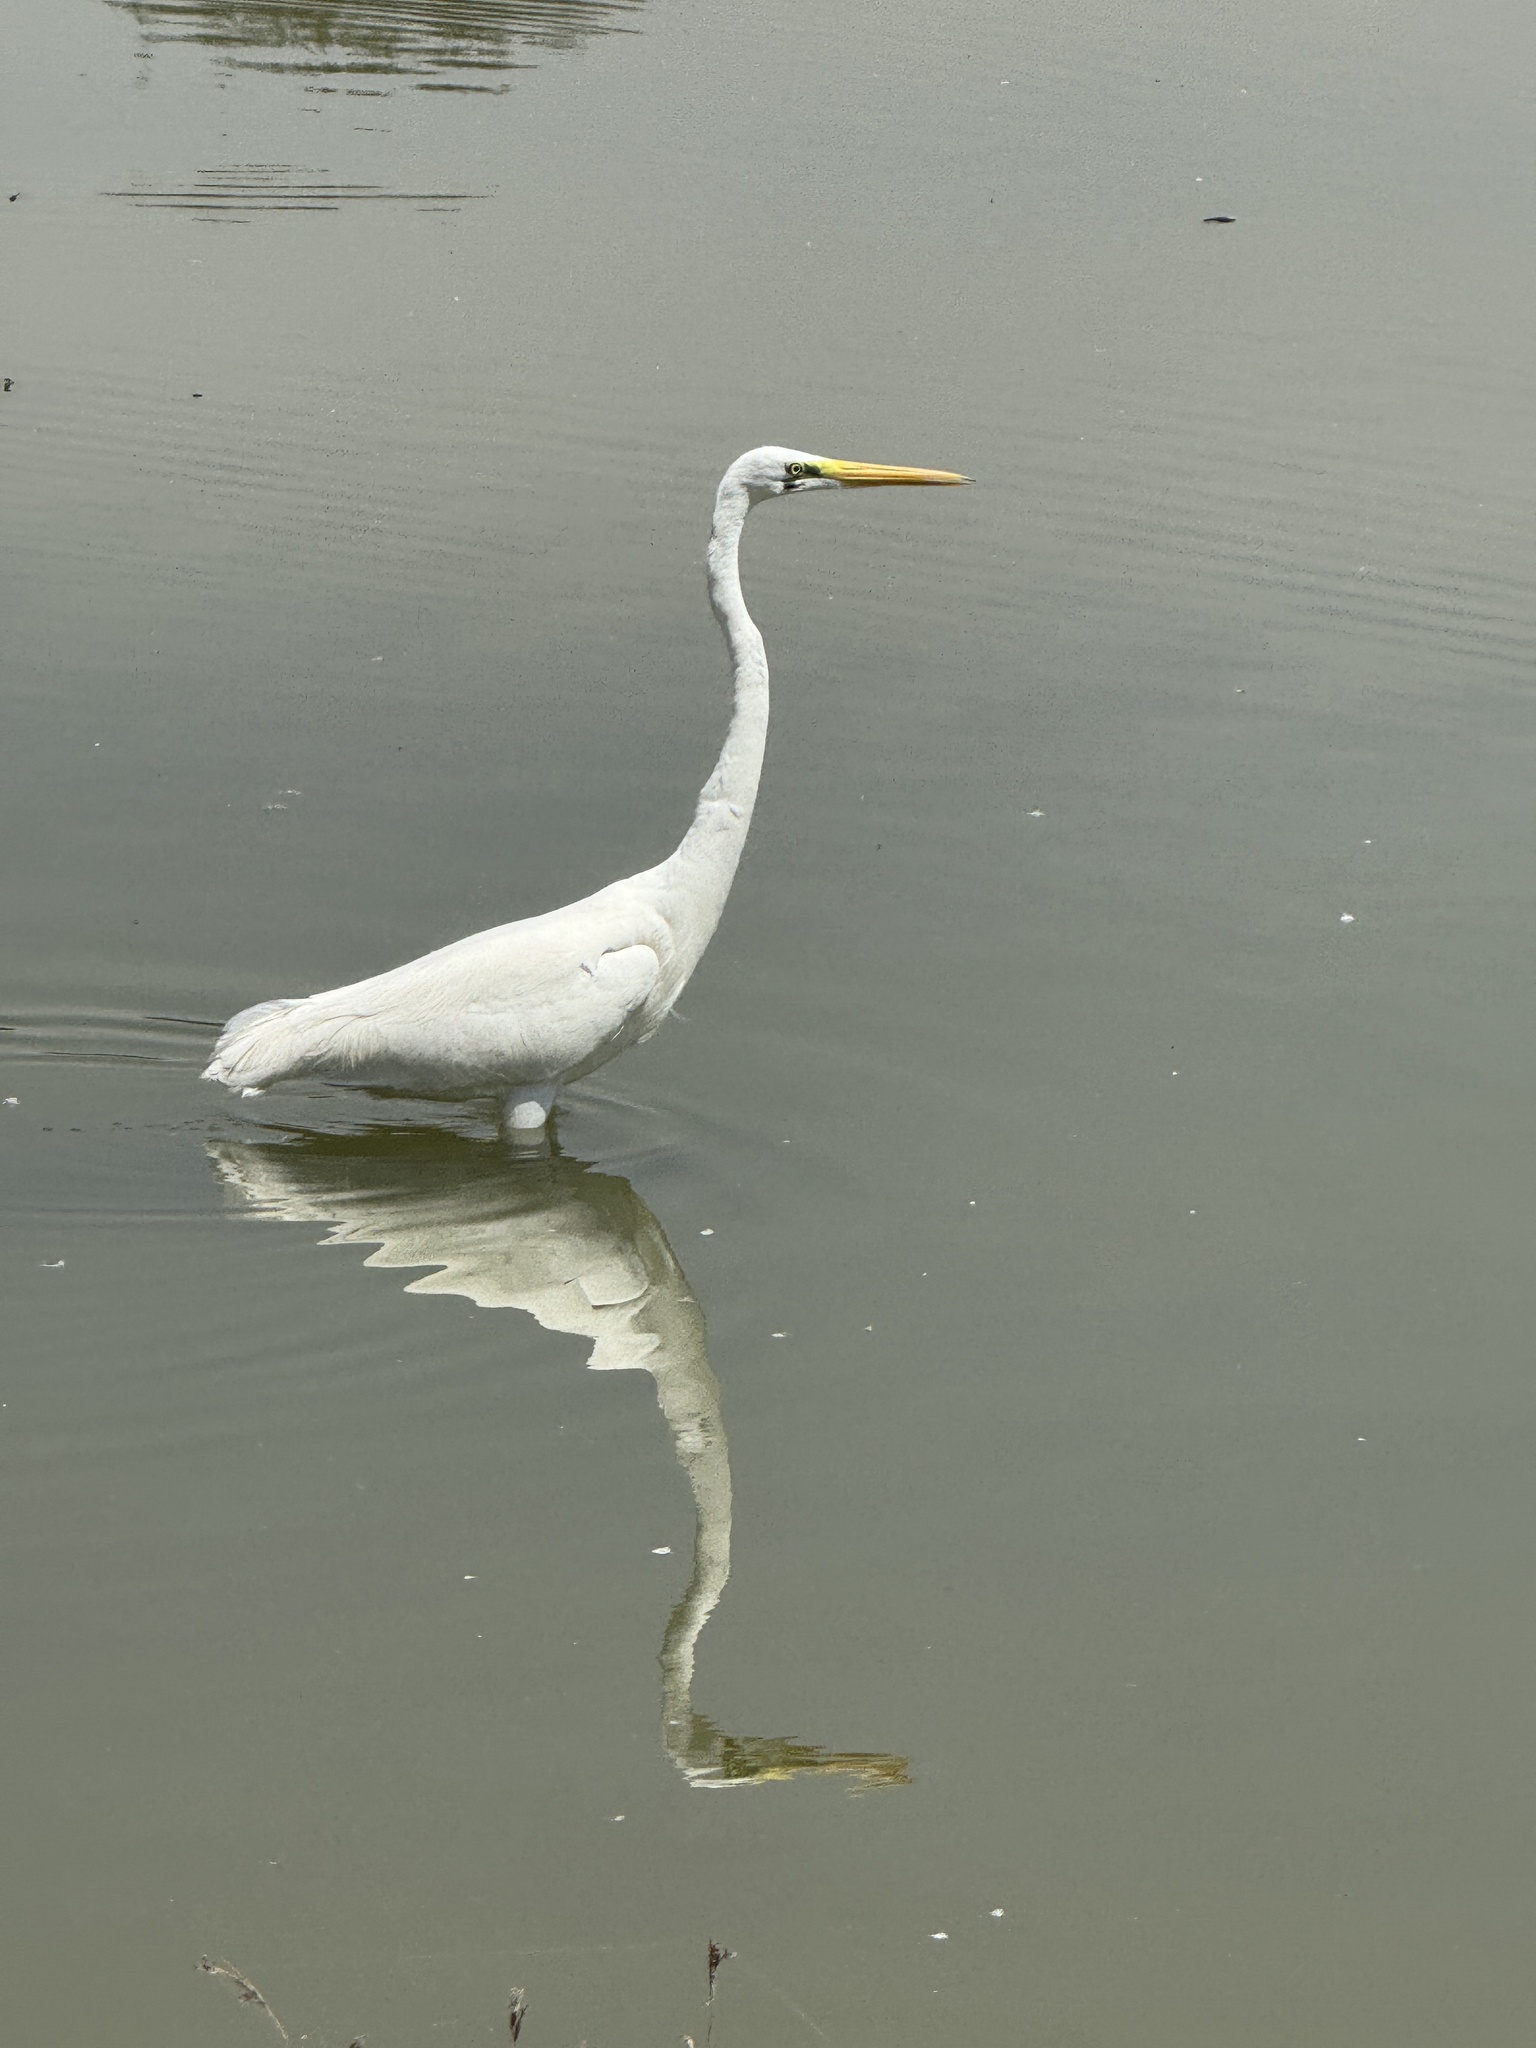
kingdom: Animalia
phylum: Chordata
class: Aves
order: Pelecaniformes
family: Ardeidae
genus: Ardea
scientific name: Ardea alba
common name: Great egret
